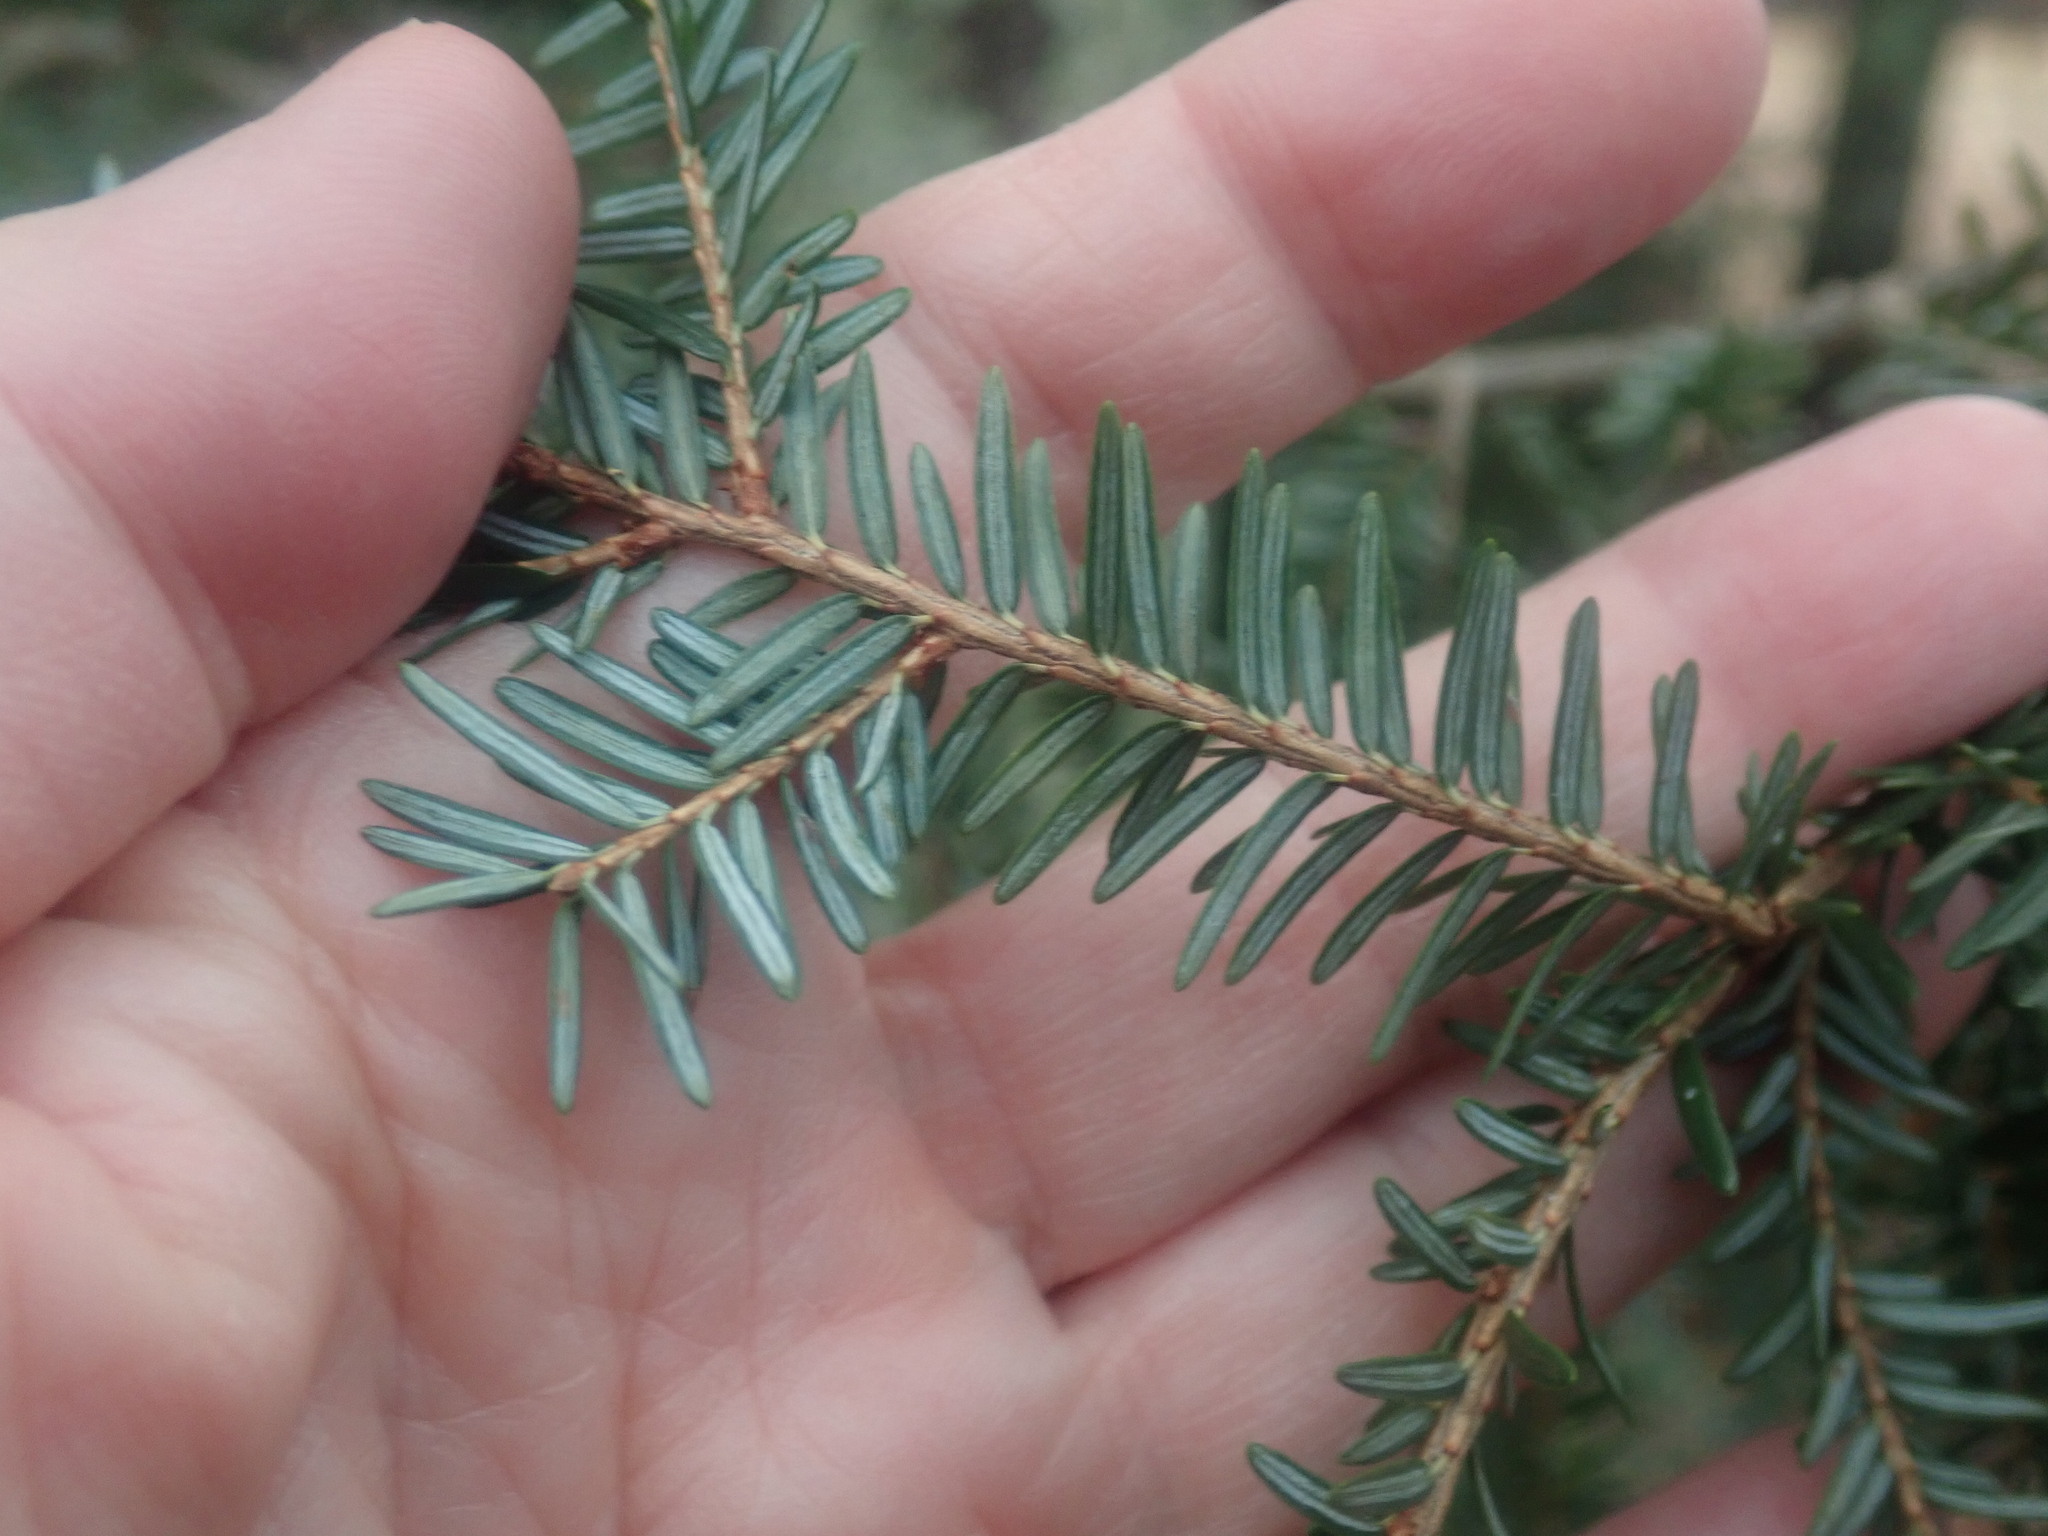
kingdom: Plantae
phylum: Tracheophyta
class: Pinopsida
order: Pinales
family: Pinaceae
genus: Tsuga
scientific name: Tsuga canadensis
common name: Eastern hemlock
